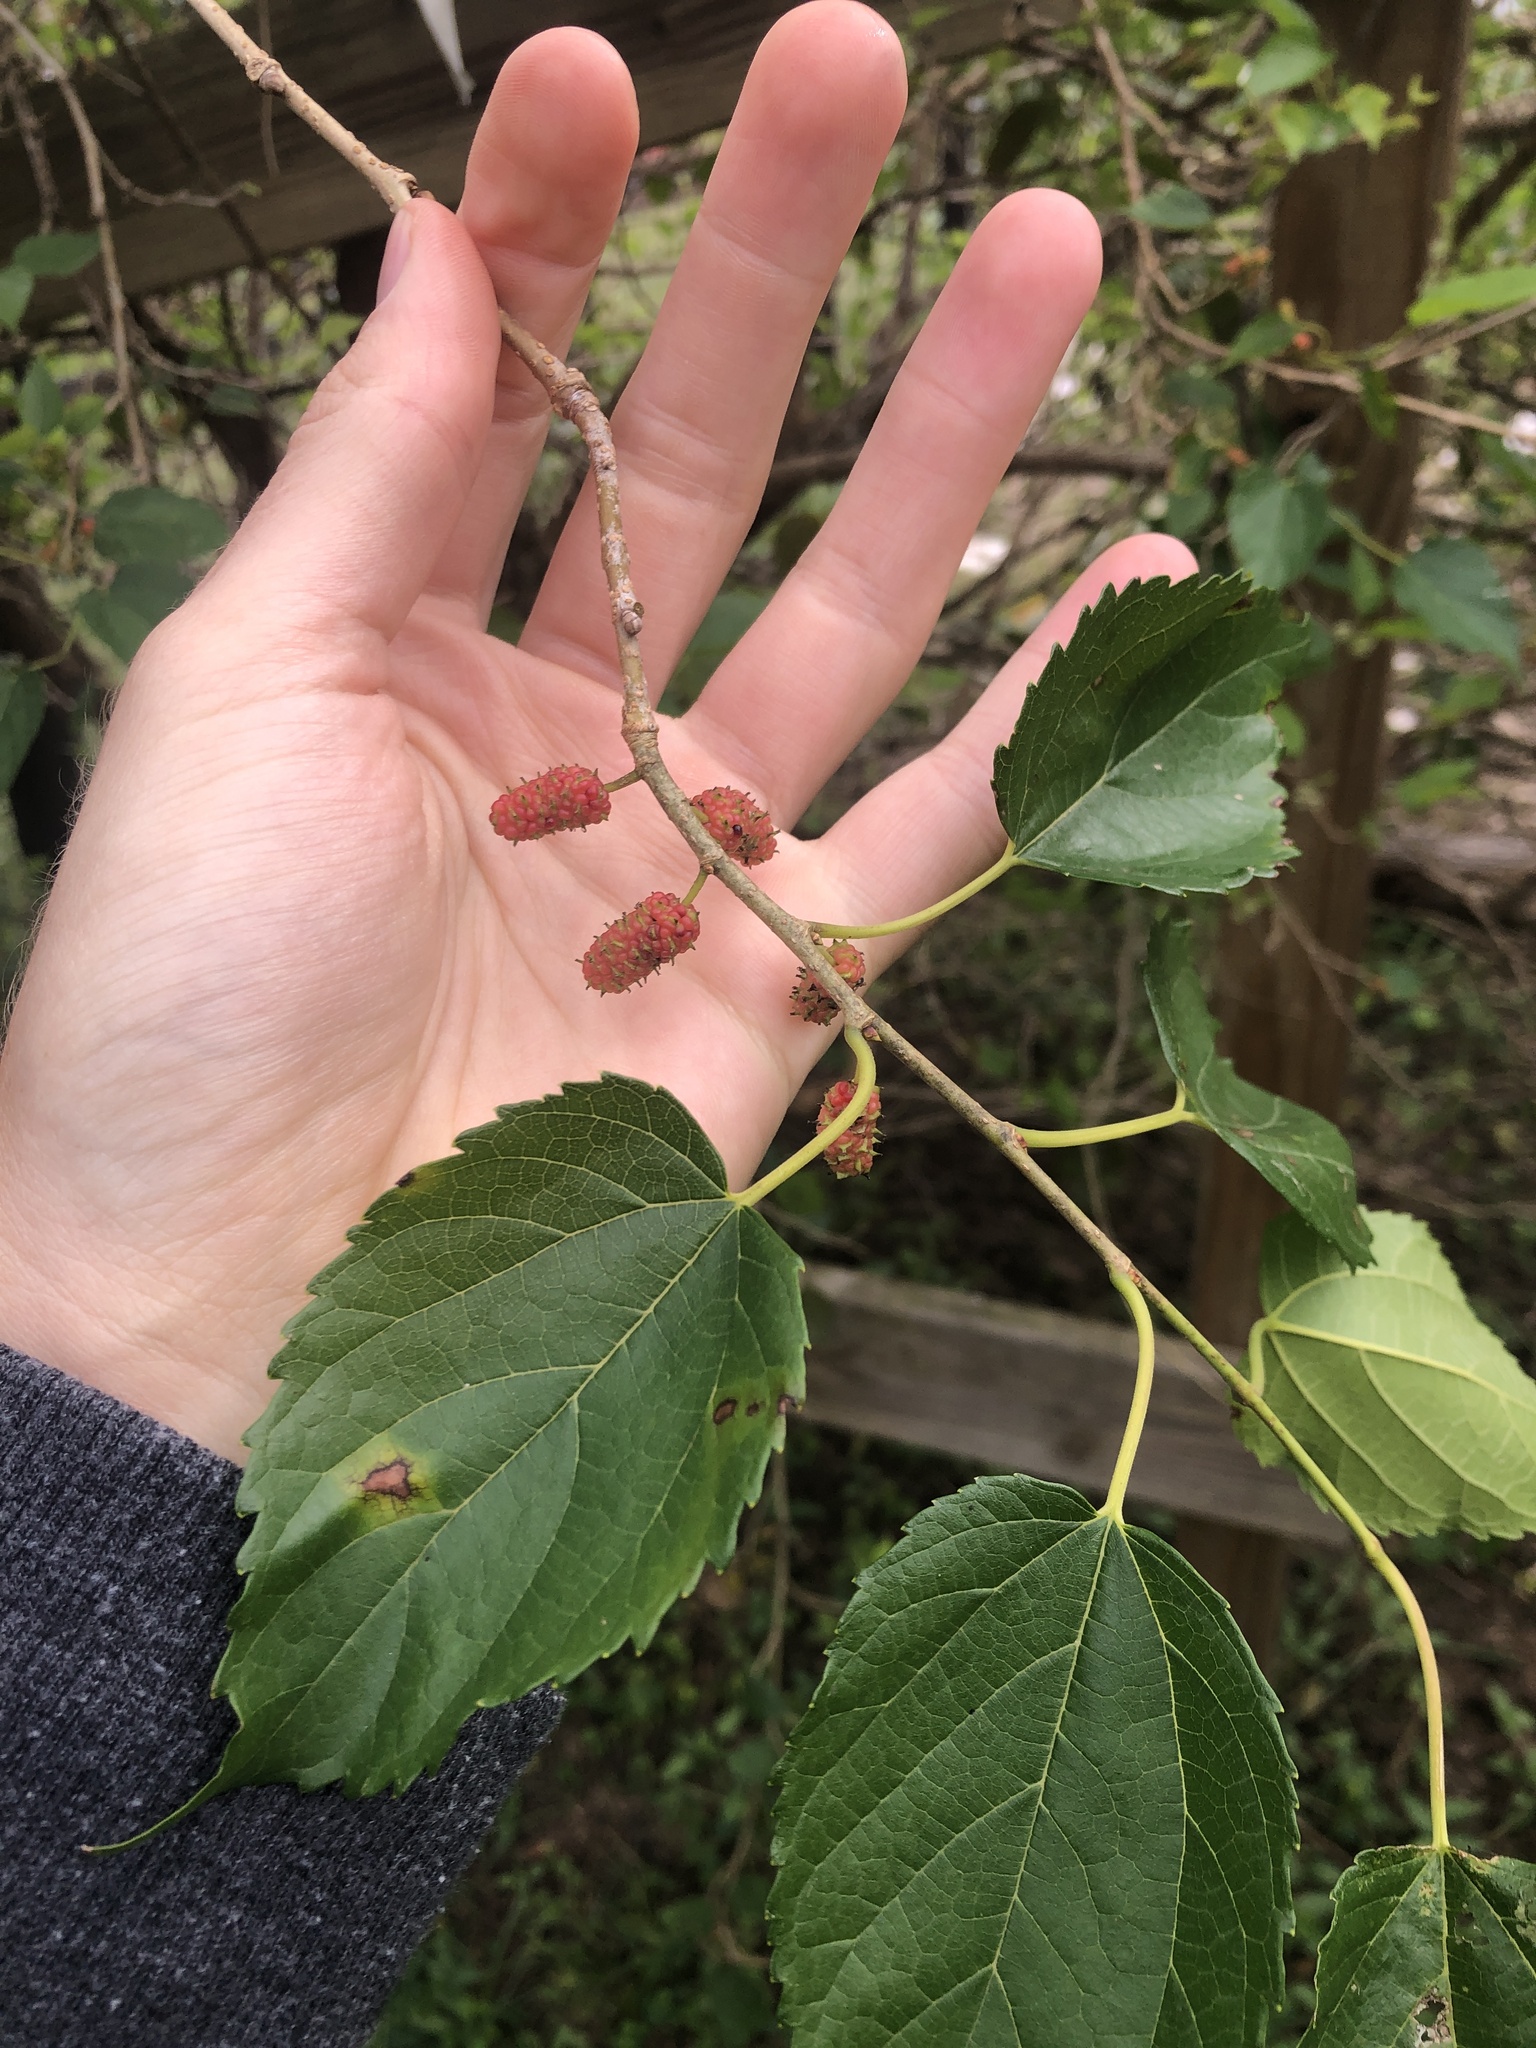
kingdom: Plantae
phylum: Tracheophyta
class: Magnoliopsida
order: Rosales
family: Moraceae
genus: Morus
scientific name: Morus alba
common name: White mulberry
